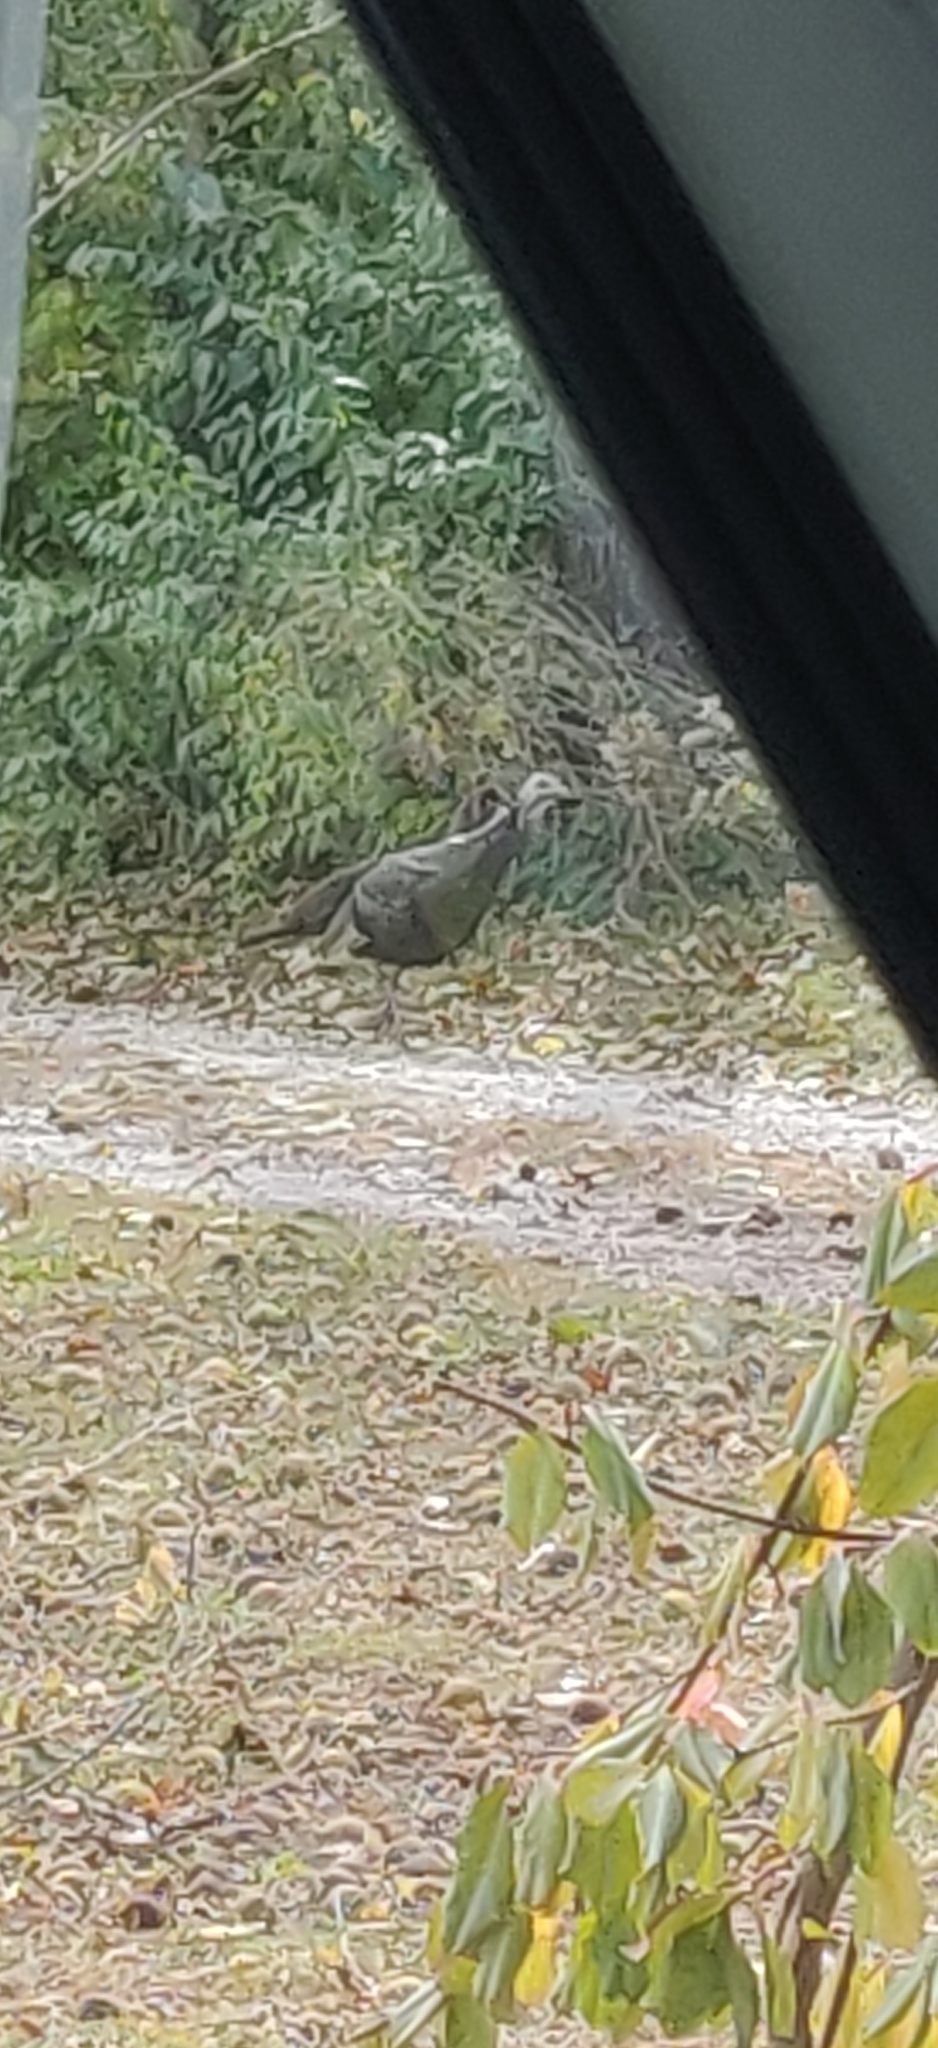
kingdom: Animalia
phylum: Chordata
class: Aves
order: Galliformes
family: Phasianidae
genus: Meleagris
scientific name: Meleagris gallopavo
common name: Wild turkey
